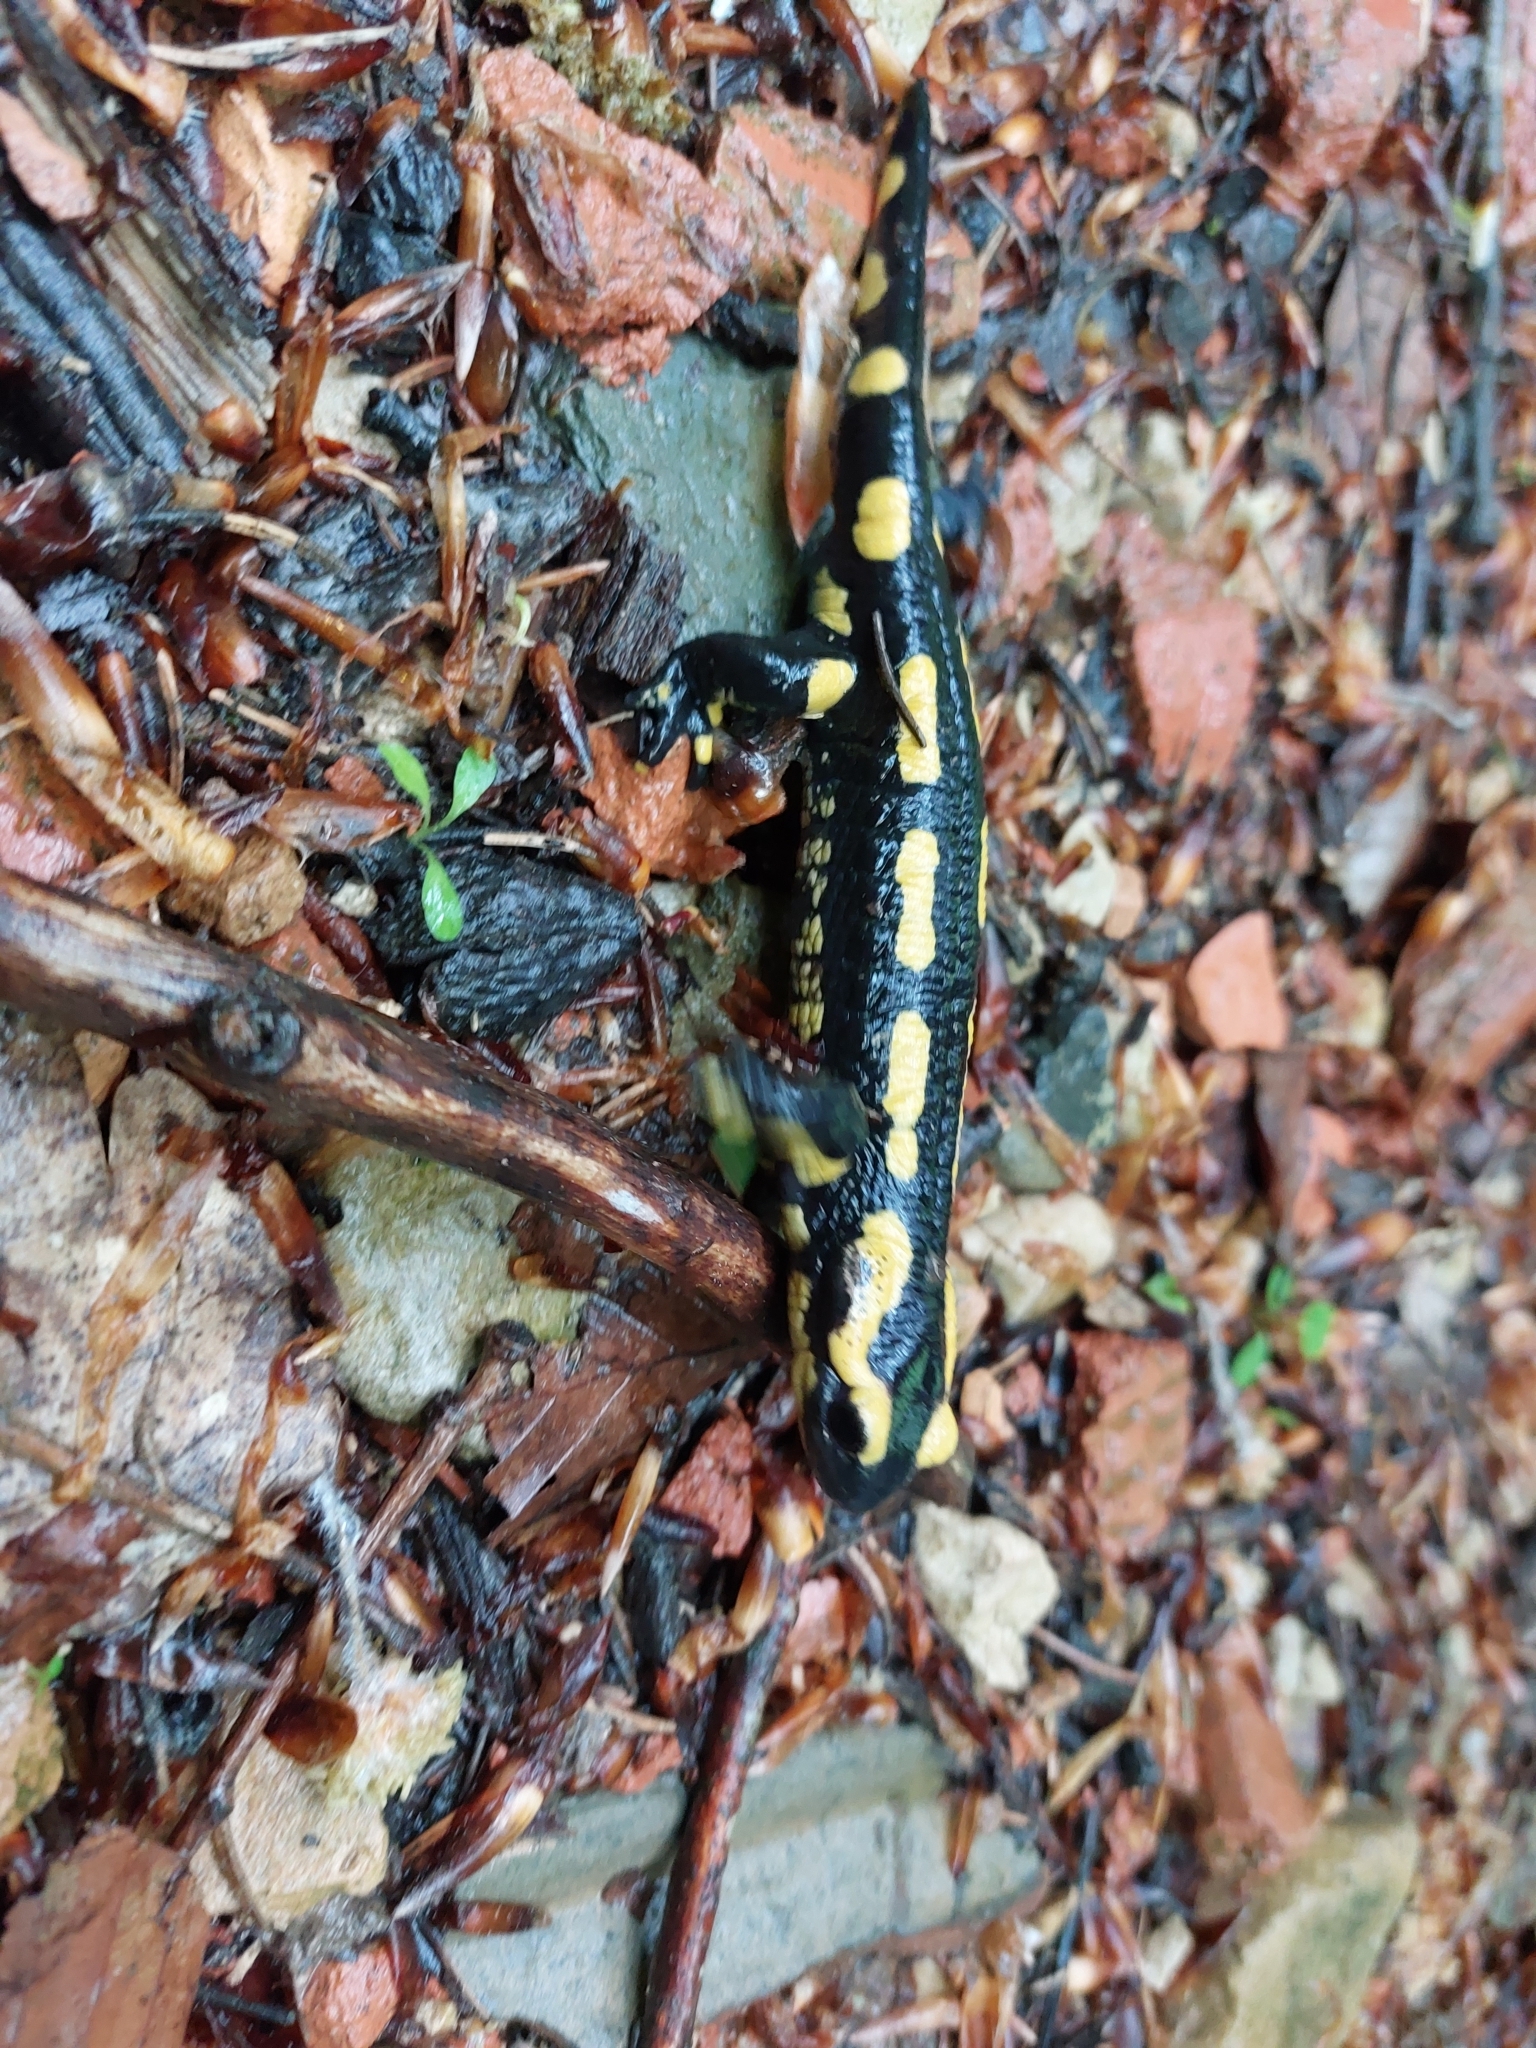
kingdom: Animalia
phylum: Chordata
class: Amphibia
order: Caudata
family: Salamandridae
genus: Salamandra
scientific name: Salamandra salamandra
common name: Fire salamander
